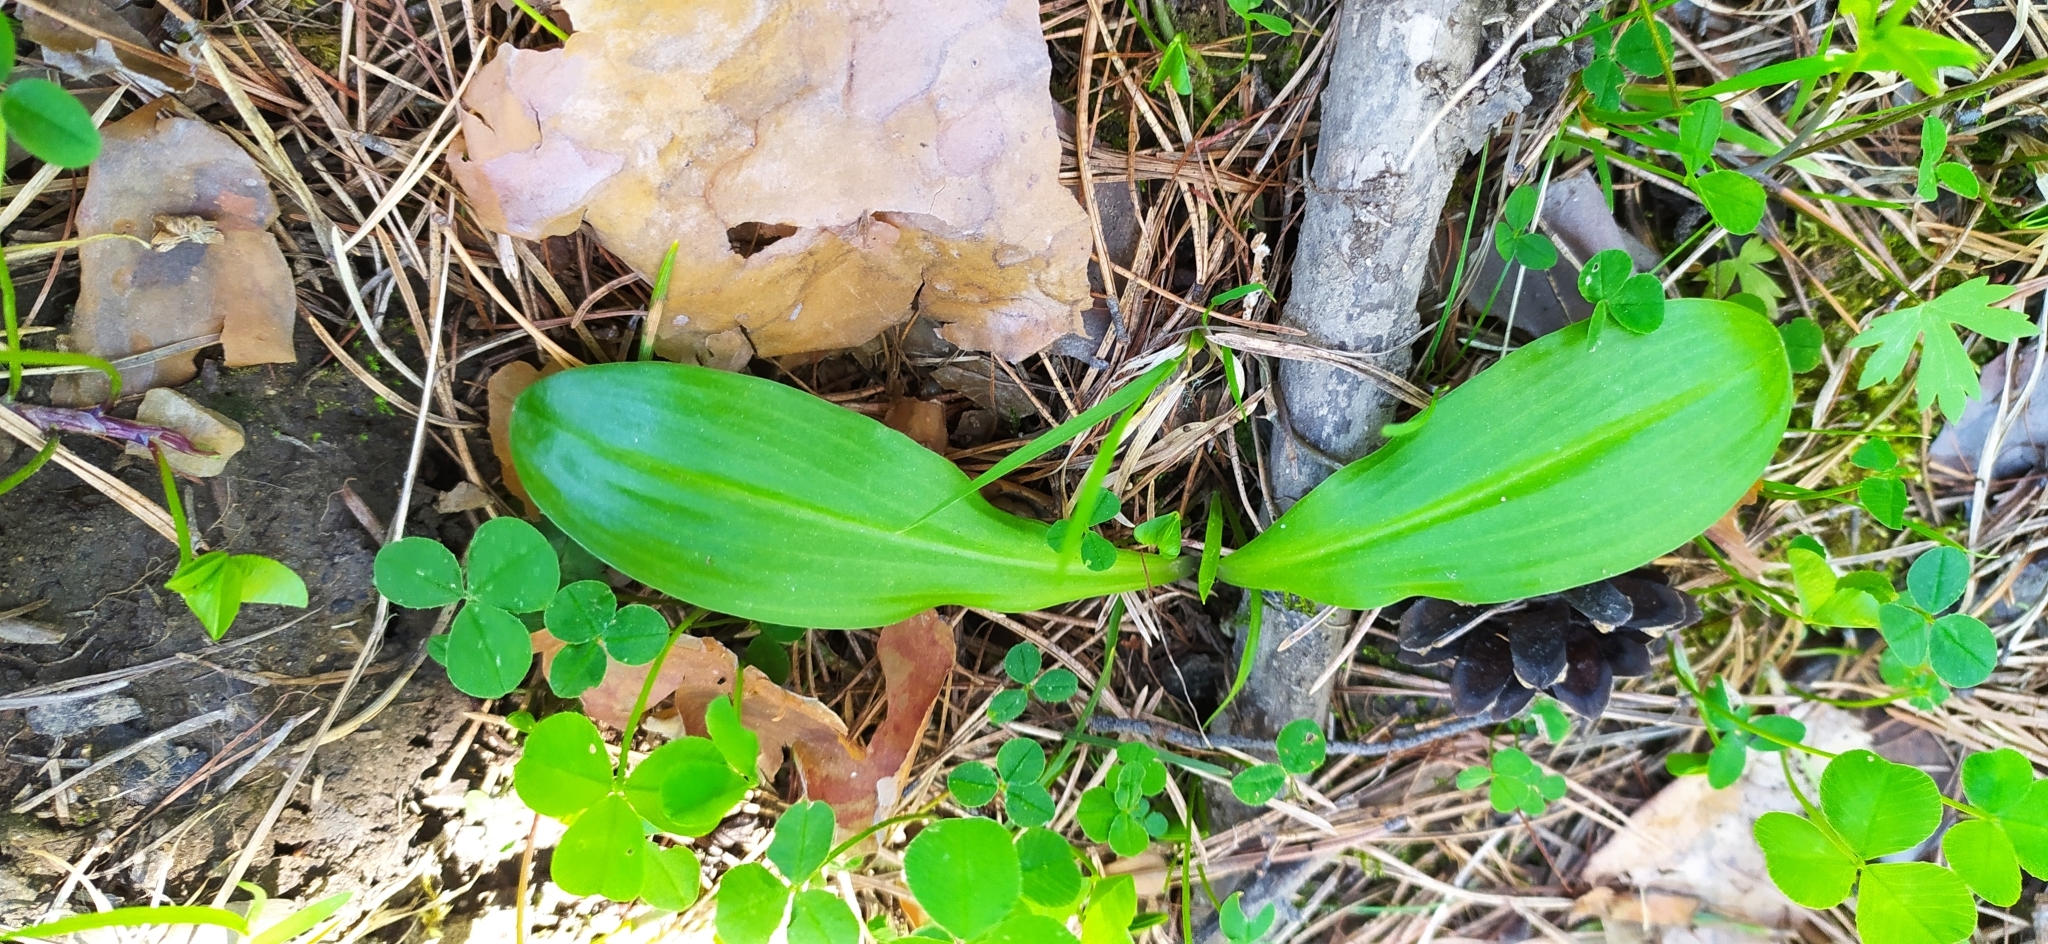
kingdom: Plantae
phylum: Tracheophyta
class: Liliopsida
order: Asparagales
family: Orchidaceae
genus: Platanthera
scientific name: Platanthera bifolia
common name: Lesser butterfly-orchid
